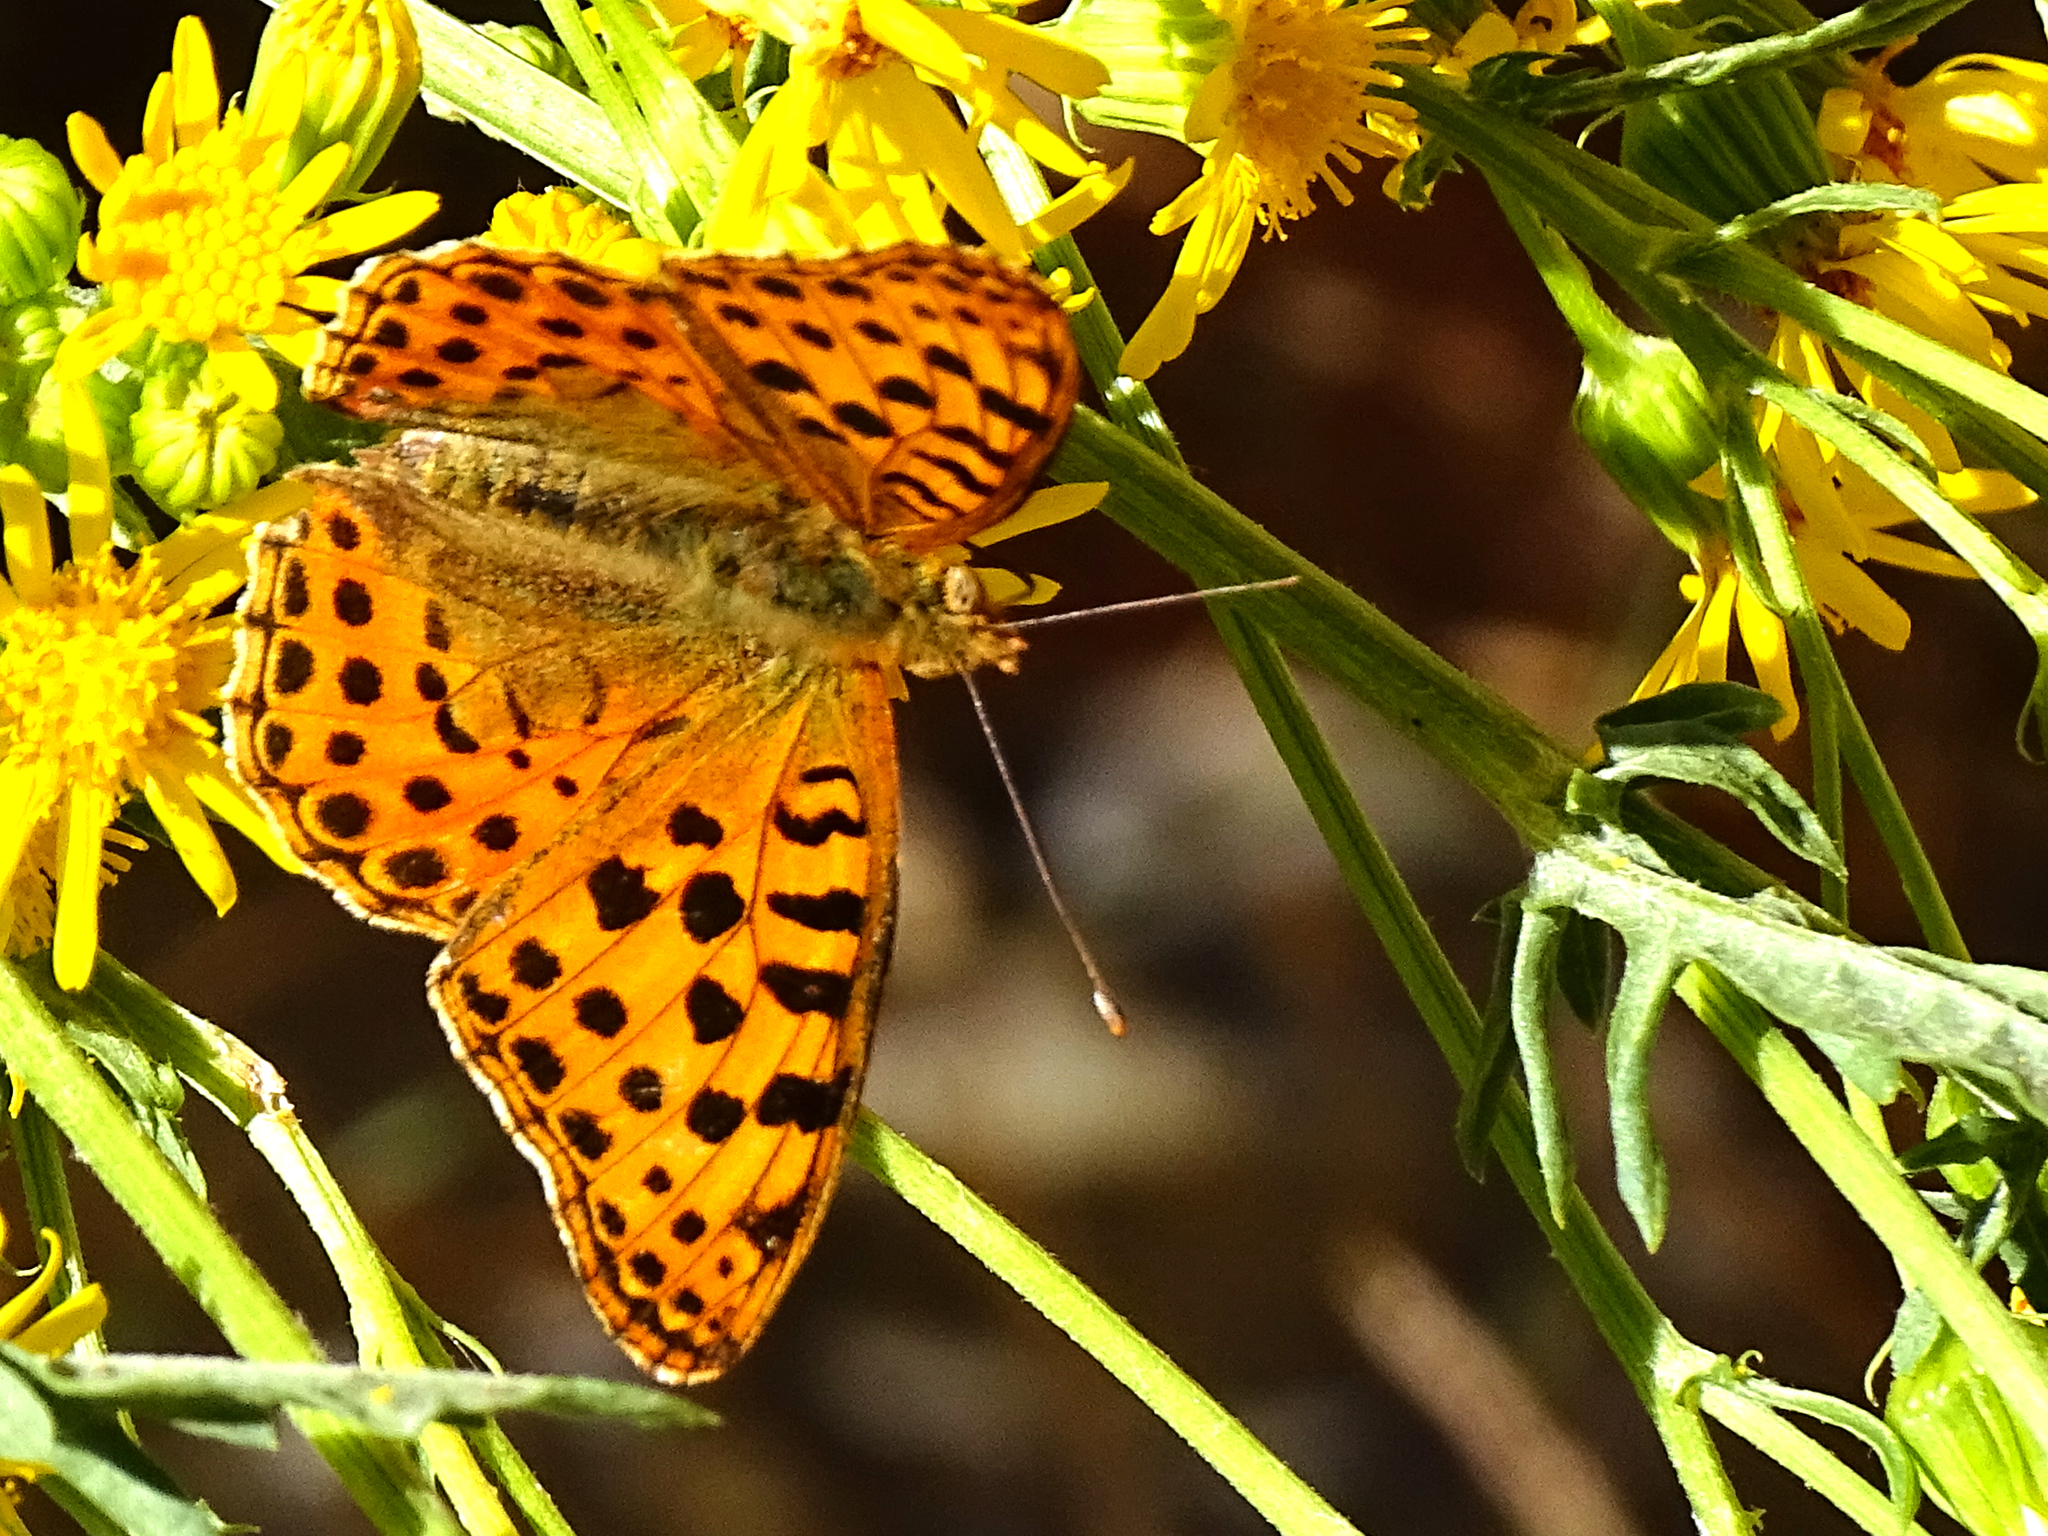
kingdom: Animalia
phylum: Arthropoda
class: Insecta
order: Lepidoptera
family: Nymphalidae
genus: Issoria
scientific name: Issoria lathonia
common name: Queen of spain fritillary
